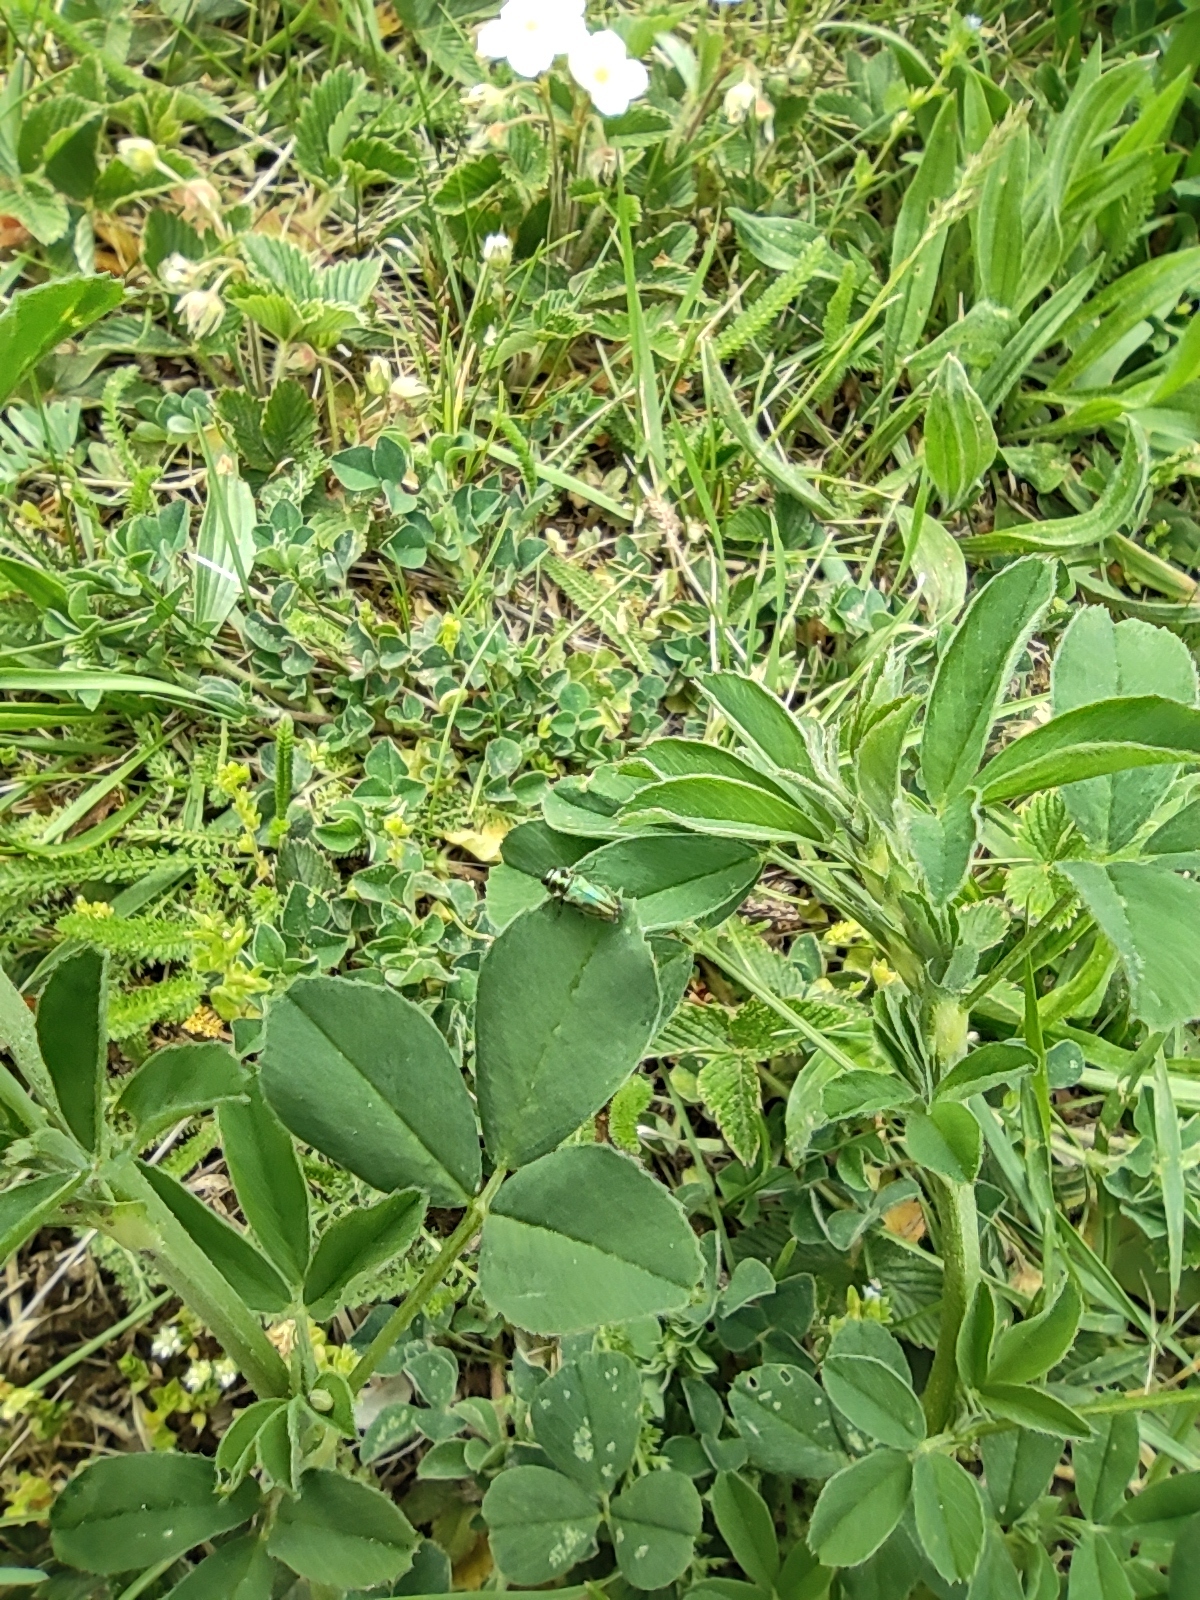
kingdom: Animalia
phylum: Arthropoda
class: Insecta
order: Coleoptera
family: Buprestidae
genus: Anthaxia
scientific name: Anthaxia fulgurans
